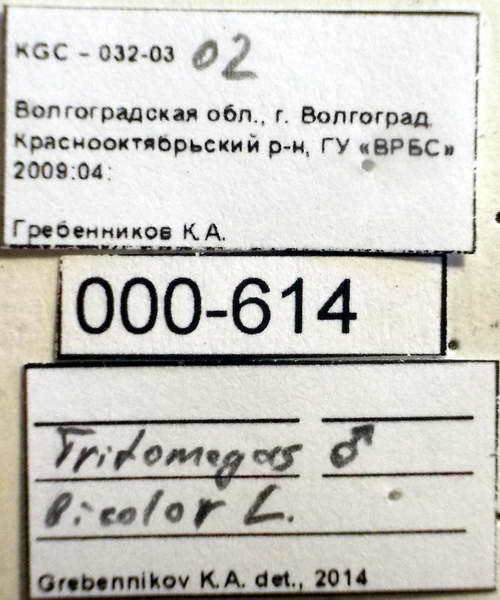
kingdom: Animalia
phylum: Arthropoda
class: Insecta
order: Hemiptera
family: Cydnidae
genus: Tritomegas
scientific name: Tritomegas bicolor
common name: Pied shieldbug
